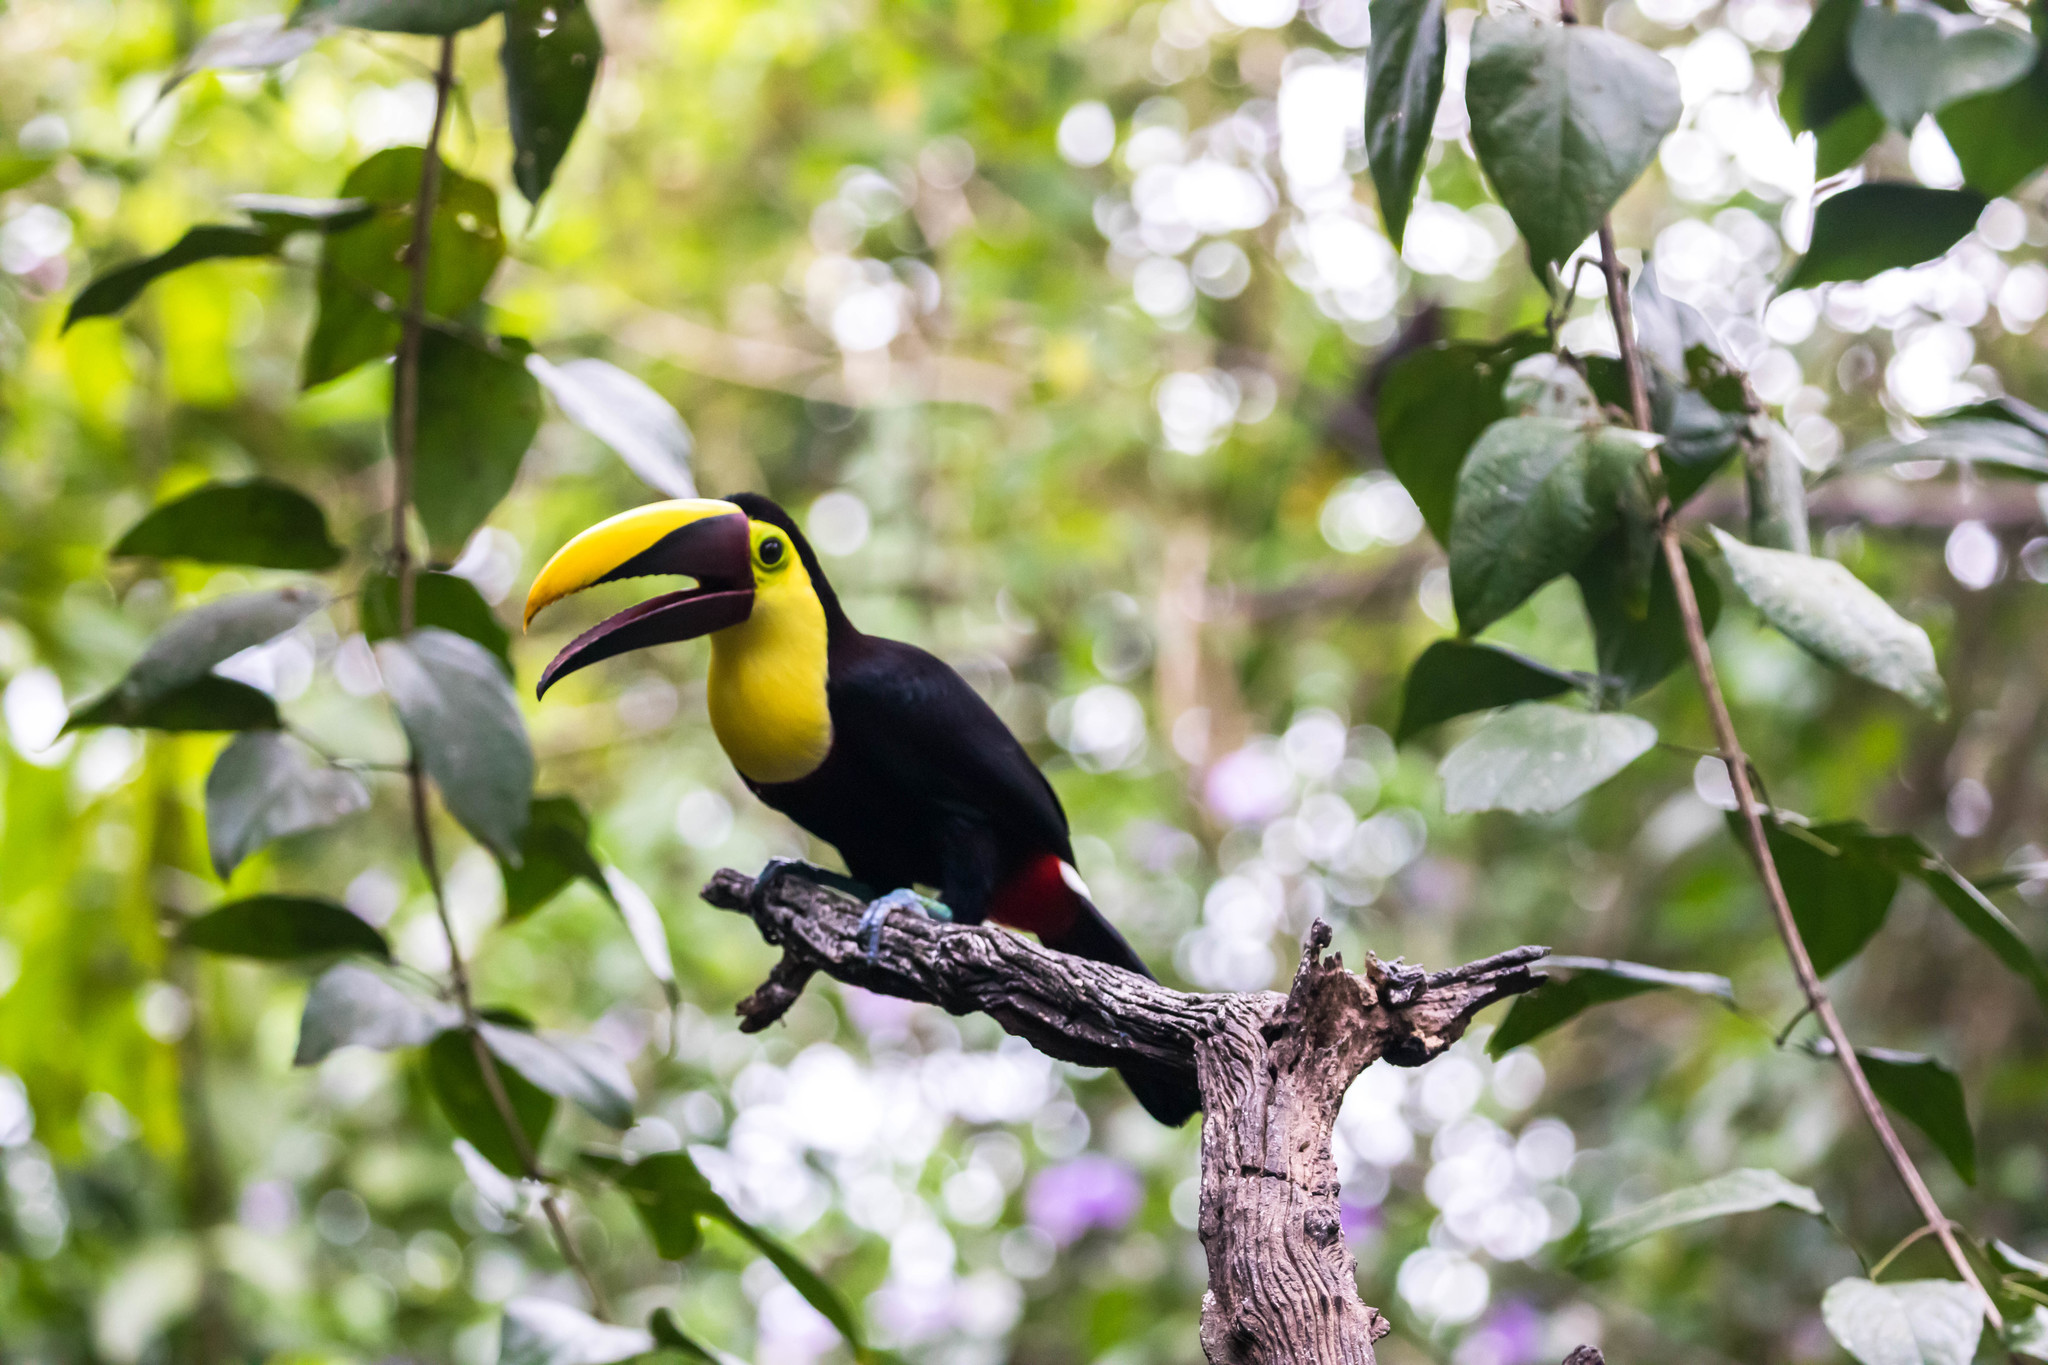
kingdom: Animalia
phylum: Chordata
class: Aves
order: Piciformes
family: Ramphastidae
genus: Ramphastos
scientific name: Ramphastos ambiguus
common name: Yellow-throated toucan
